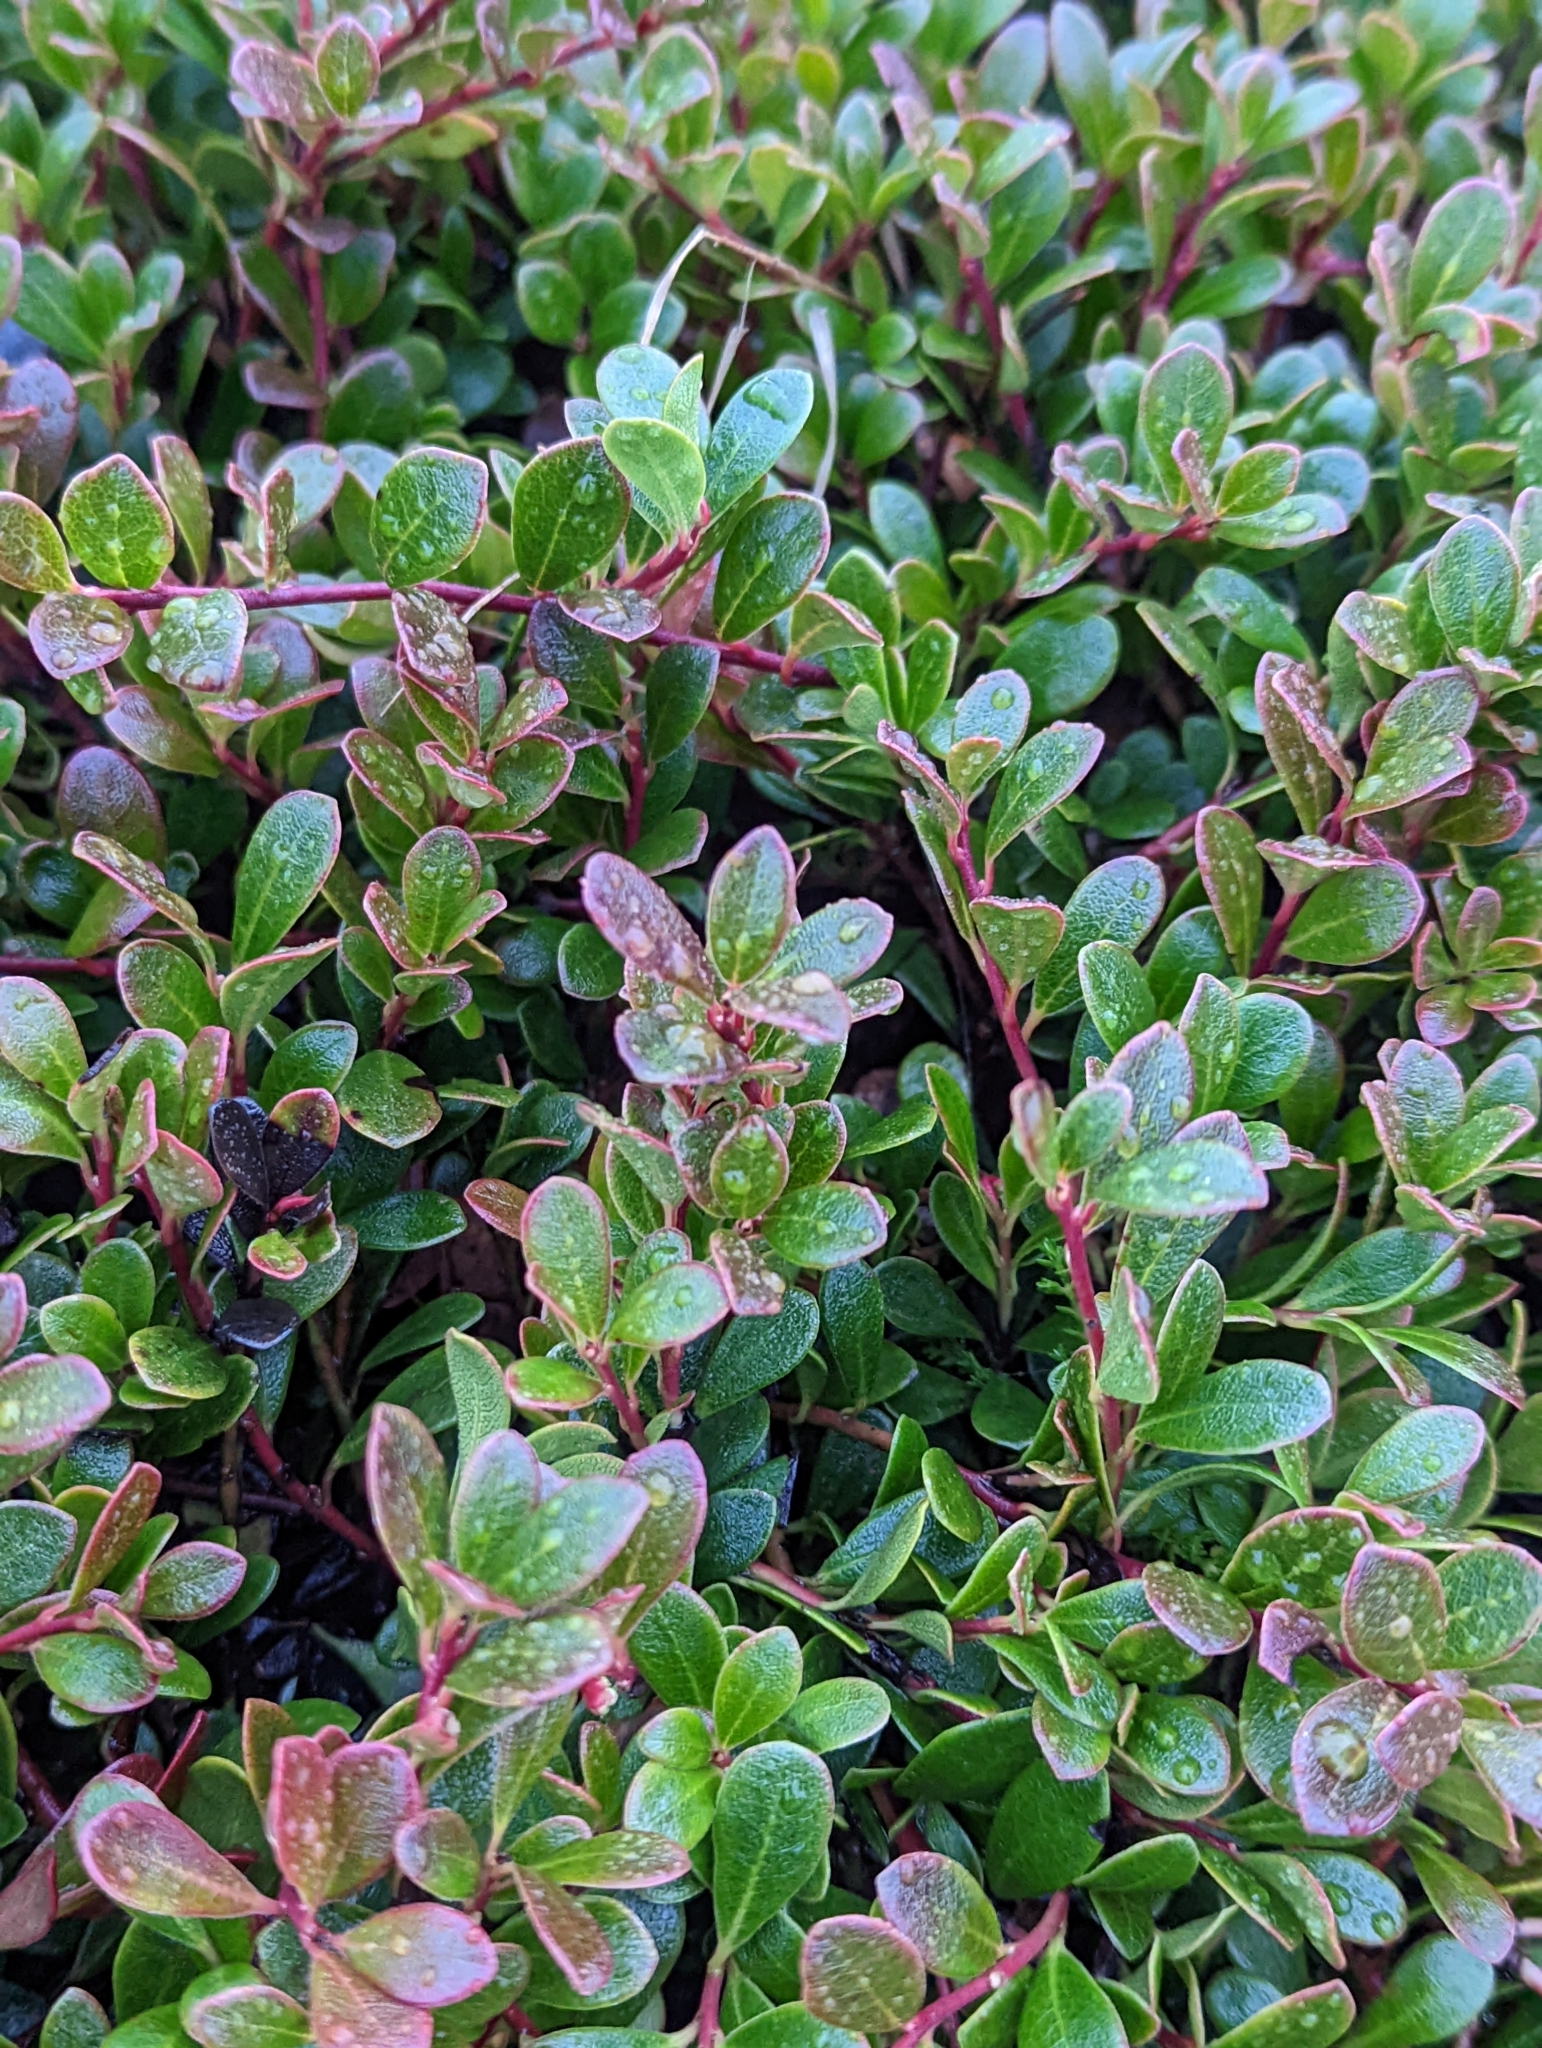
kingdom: Plantae
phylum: Tracheophyta
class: Magnoliopsida
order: Ericales
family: Ericaceae
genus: Arctostaphylos
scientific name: Arctostaphylos uva-ursi
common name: Bearberry
